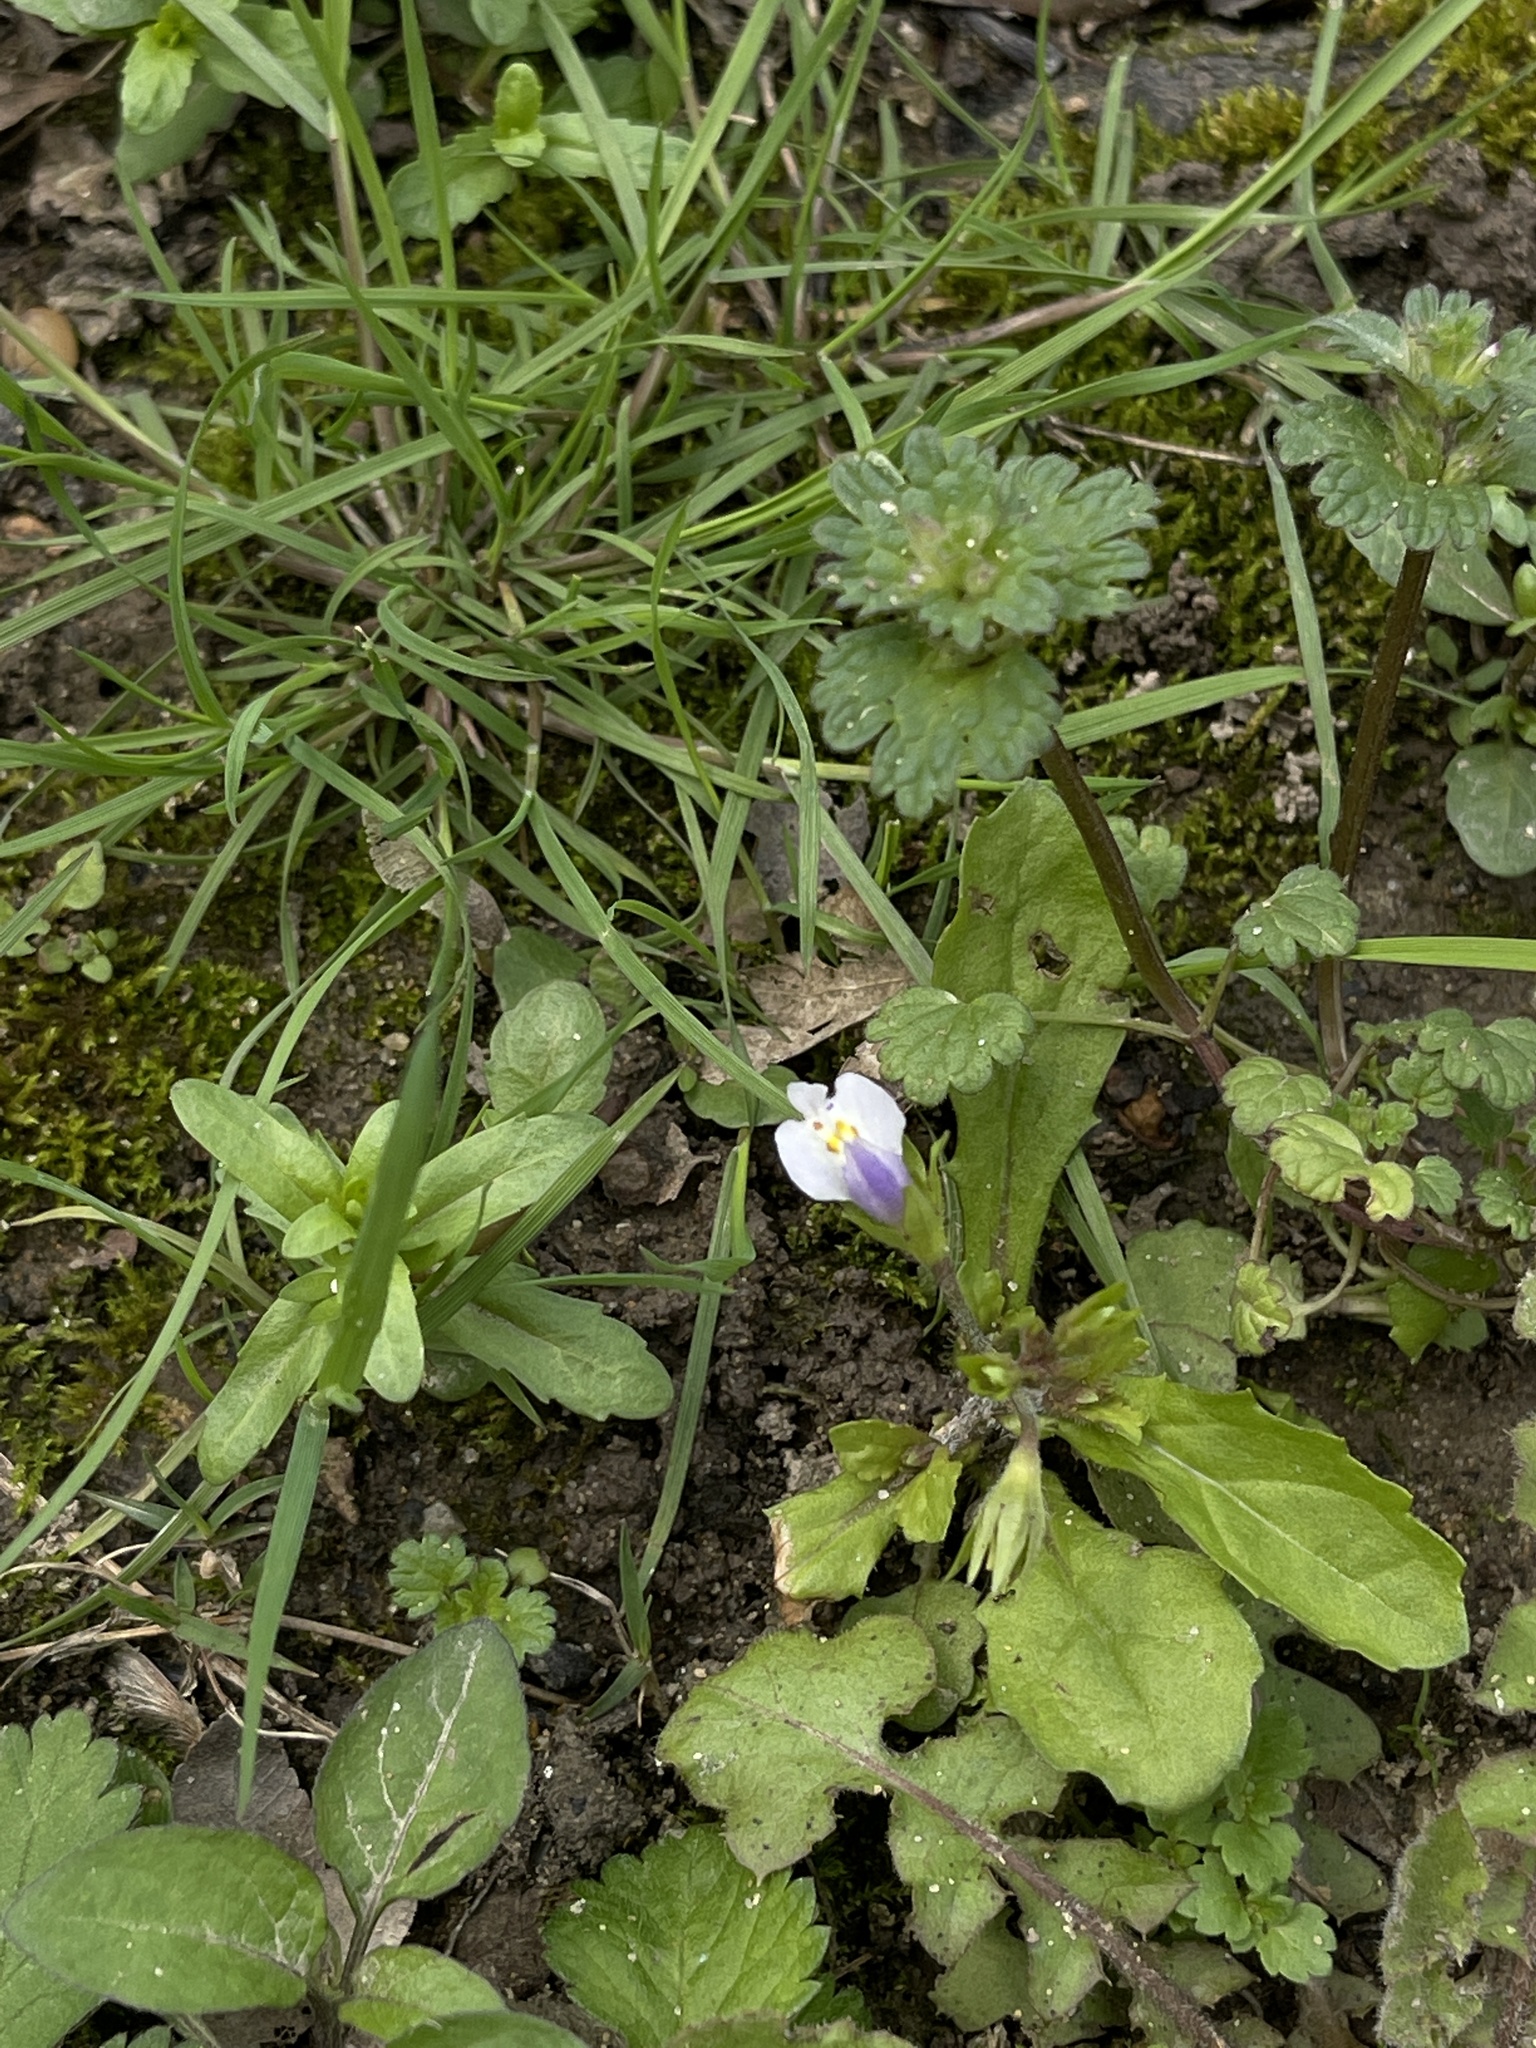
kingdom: Plantae
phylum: Tracheophyta
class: Magnoliopsida
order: Lamiales
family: Mazaceae
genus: Mazus
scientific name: Mazus pumilus
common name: Japanese mazus
